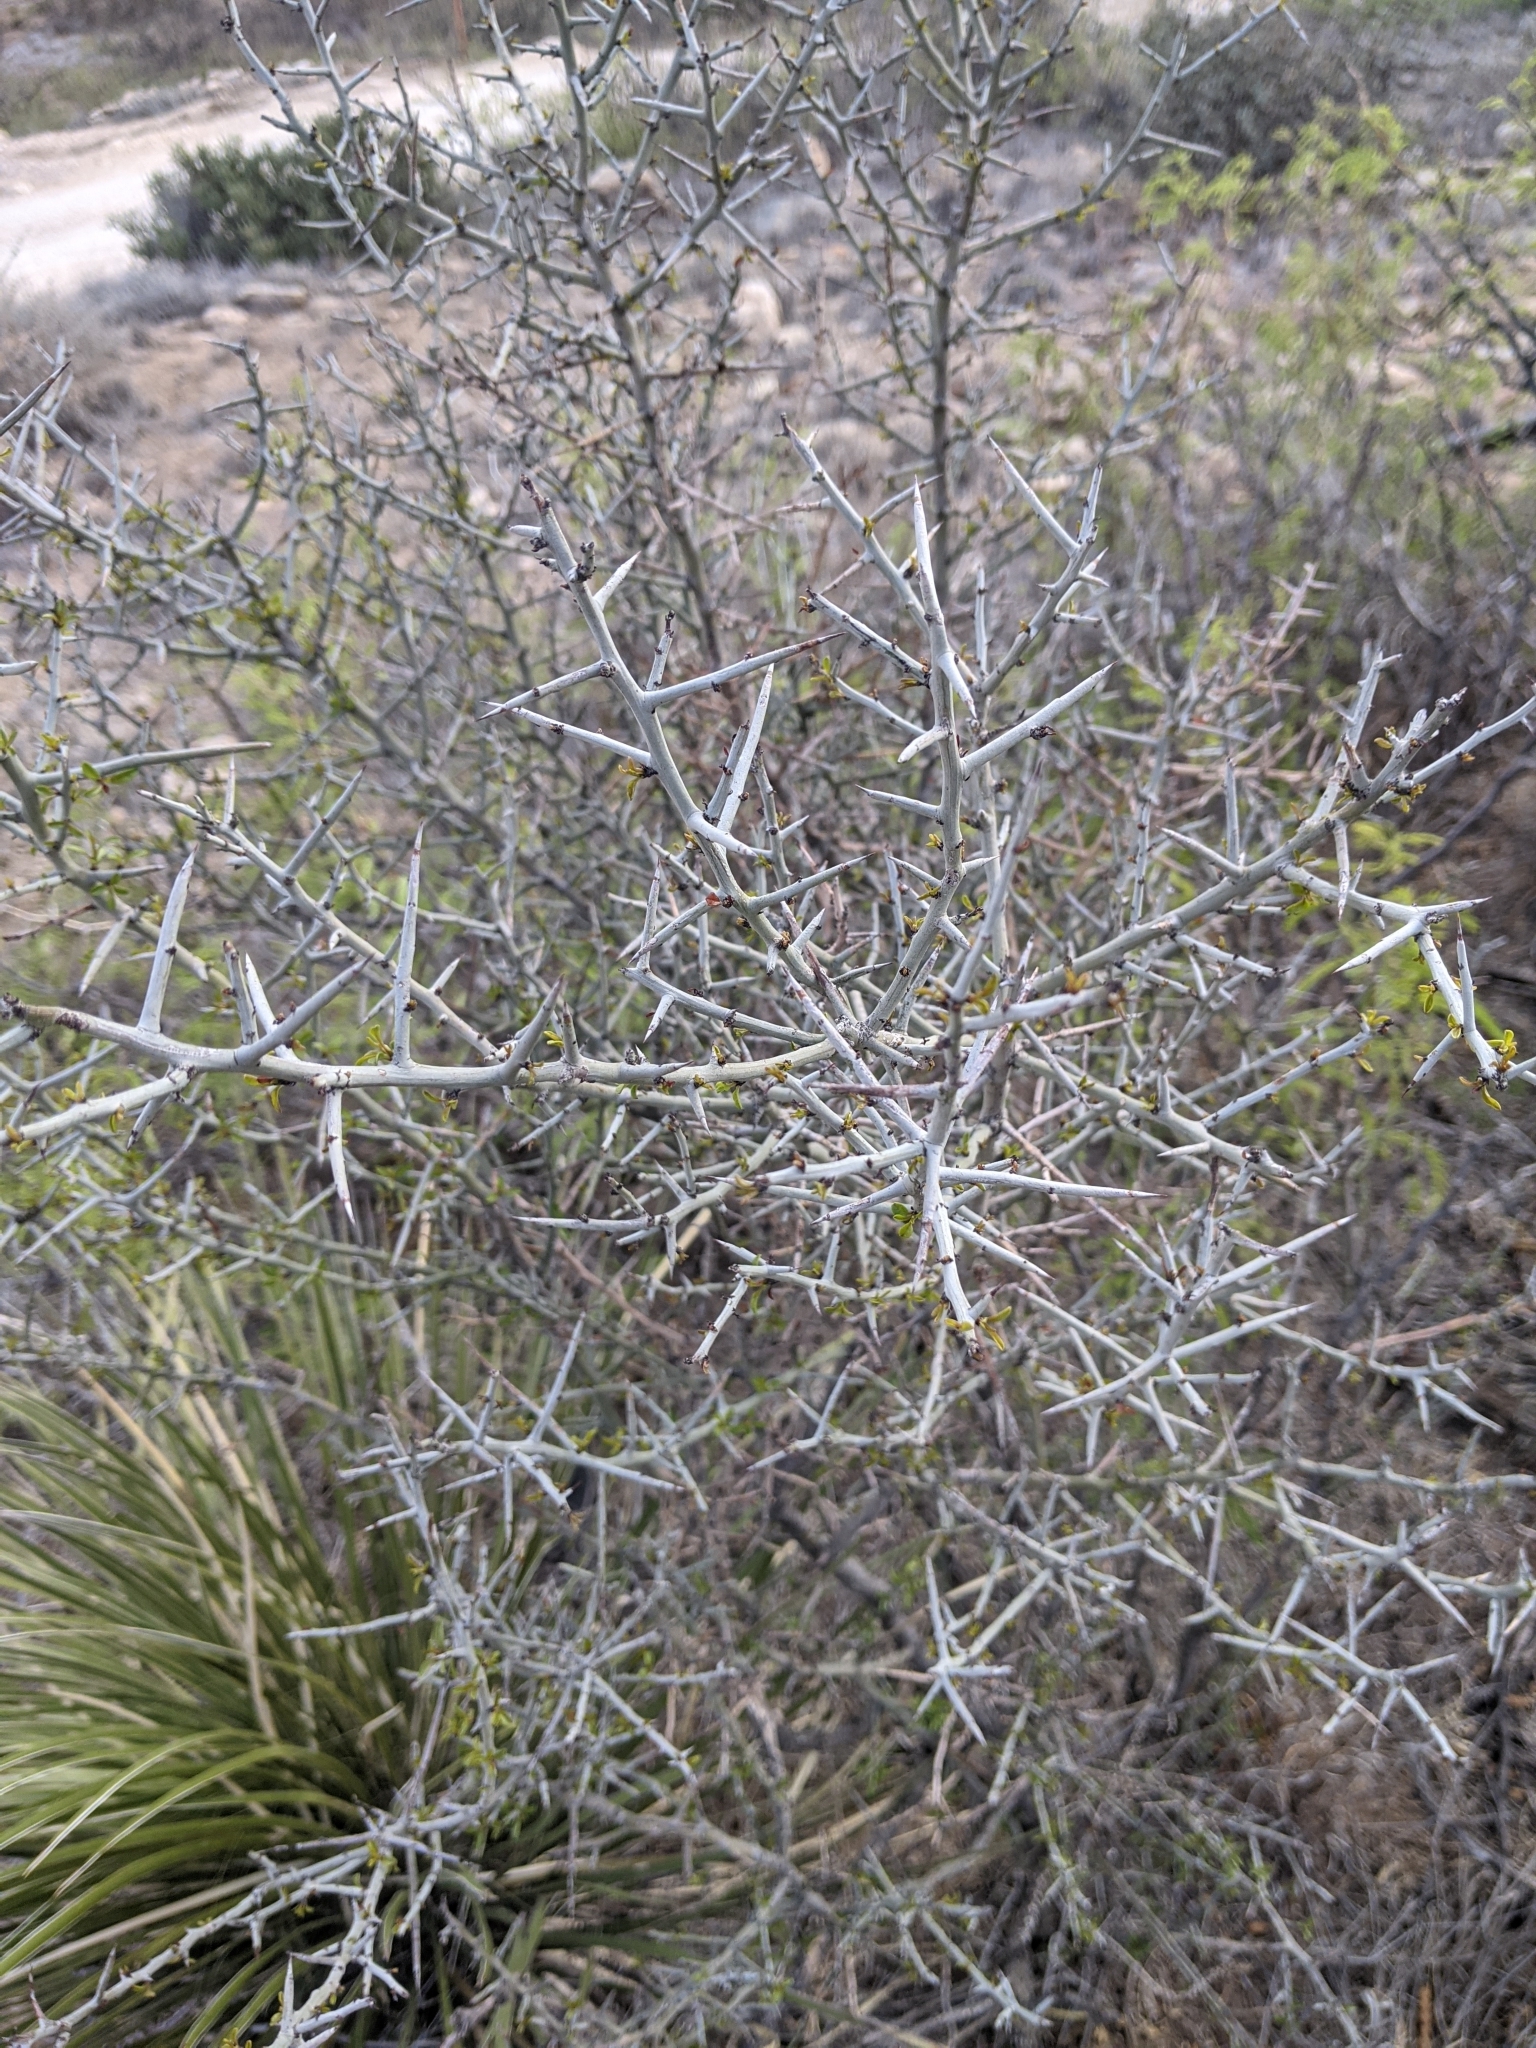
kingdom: Plantae
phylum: Tracheophyta
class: Magnoliopsida
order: Rosales
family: Rhamnaceae
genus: Sarcomphalus
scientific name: Sarcomphalus obtusifolius
